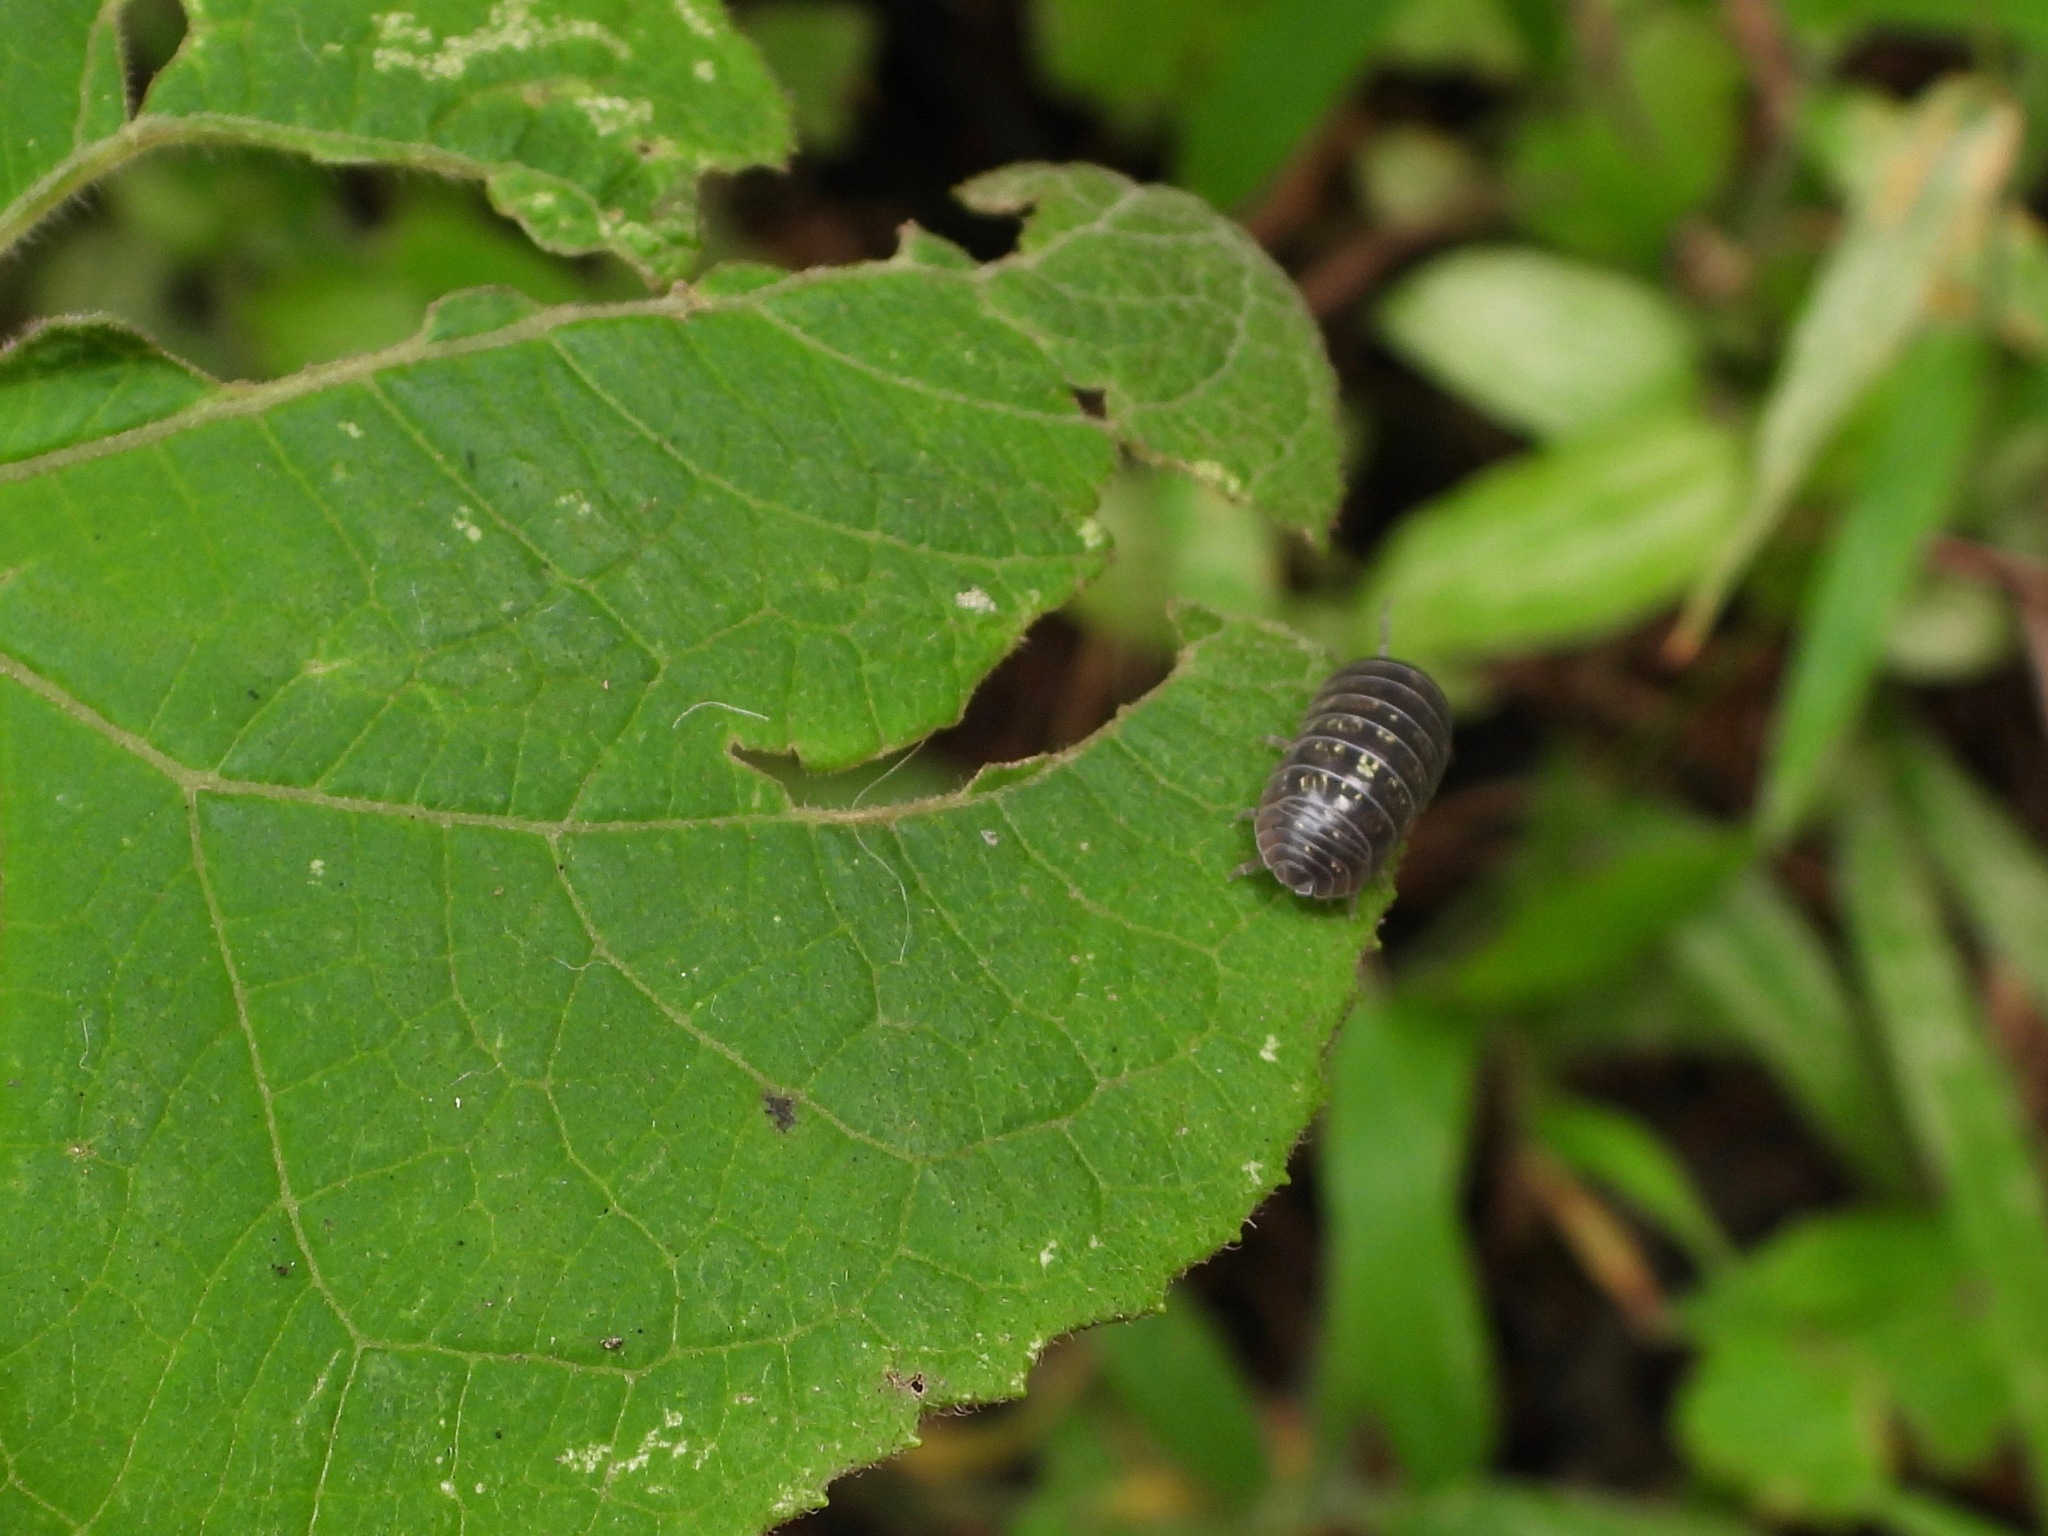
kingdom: Animalia
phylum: Arthropoda
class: Malacostraca
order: Isopoda
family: Armadillidiidae
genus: Armadillidium
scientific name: Armadillidium vulgare
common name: Common pill woodlouse
